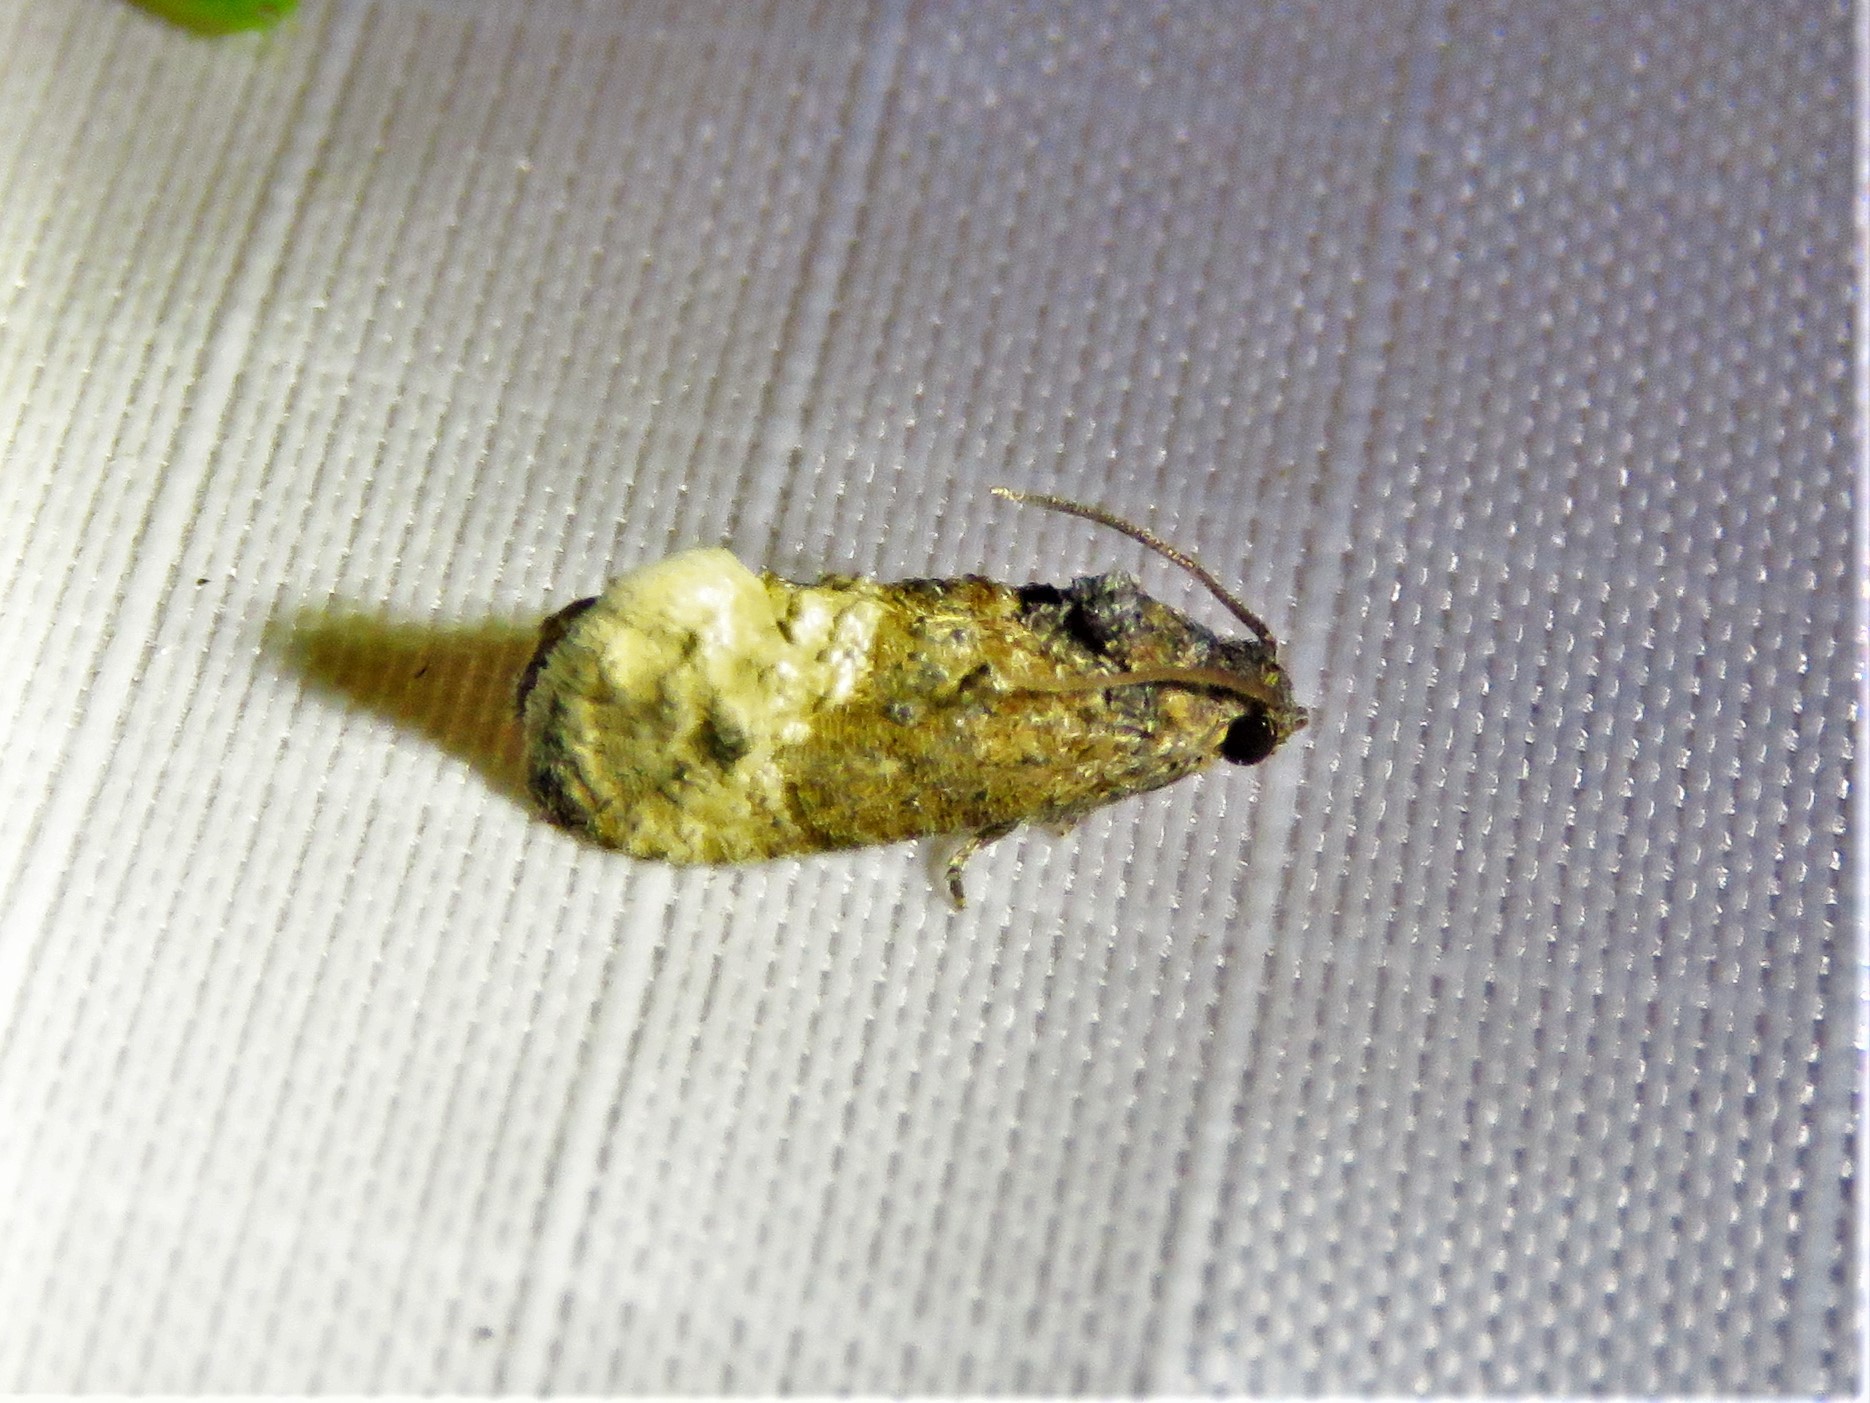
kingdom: Animalia
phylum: Arthropoda
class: Insecta
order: Lepidoptera
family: Tortricidae
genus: Ecdytolopha
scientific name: Ecdytolopha mana
